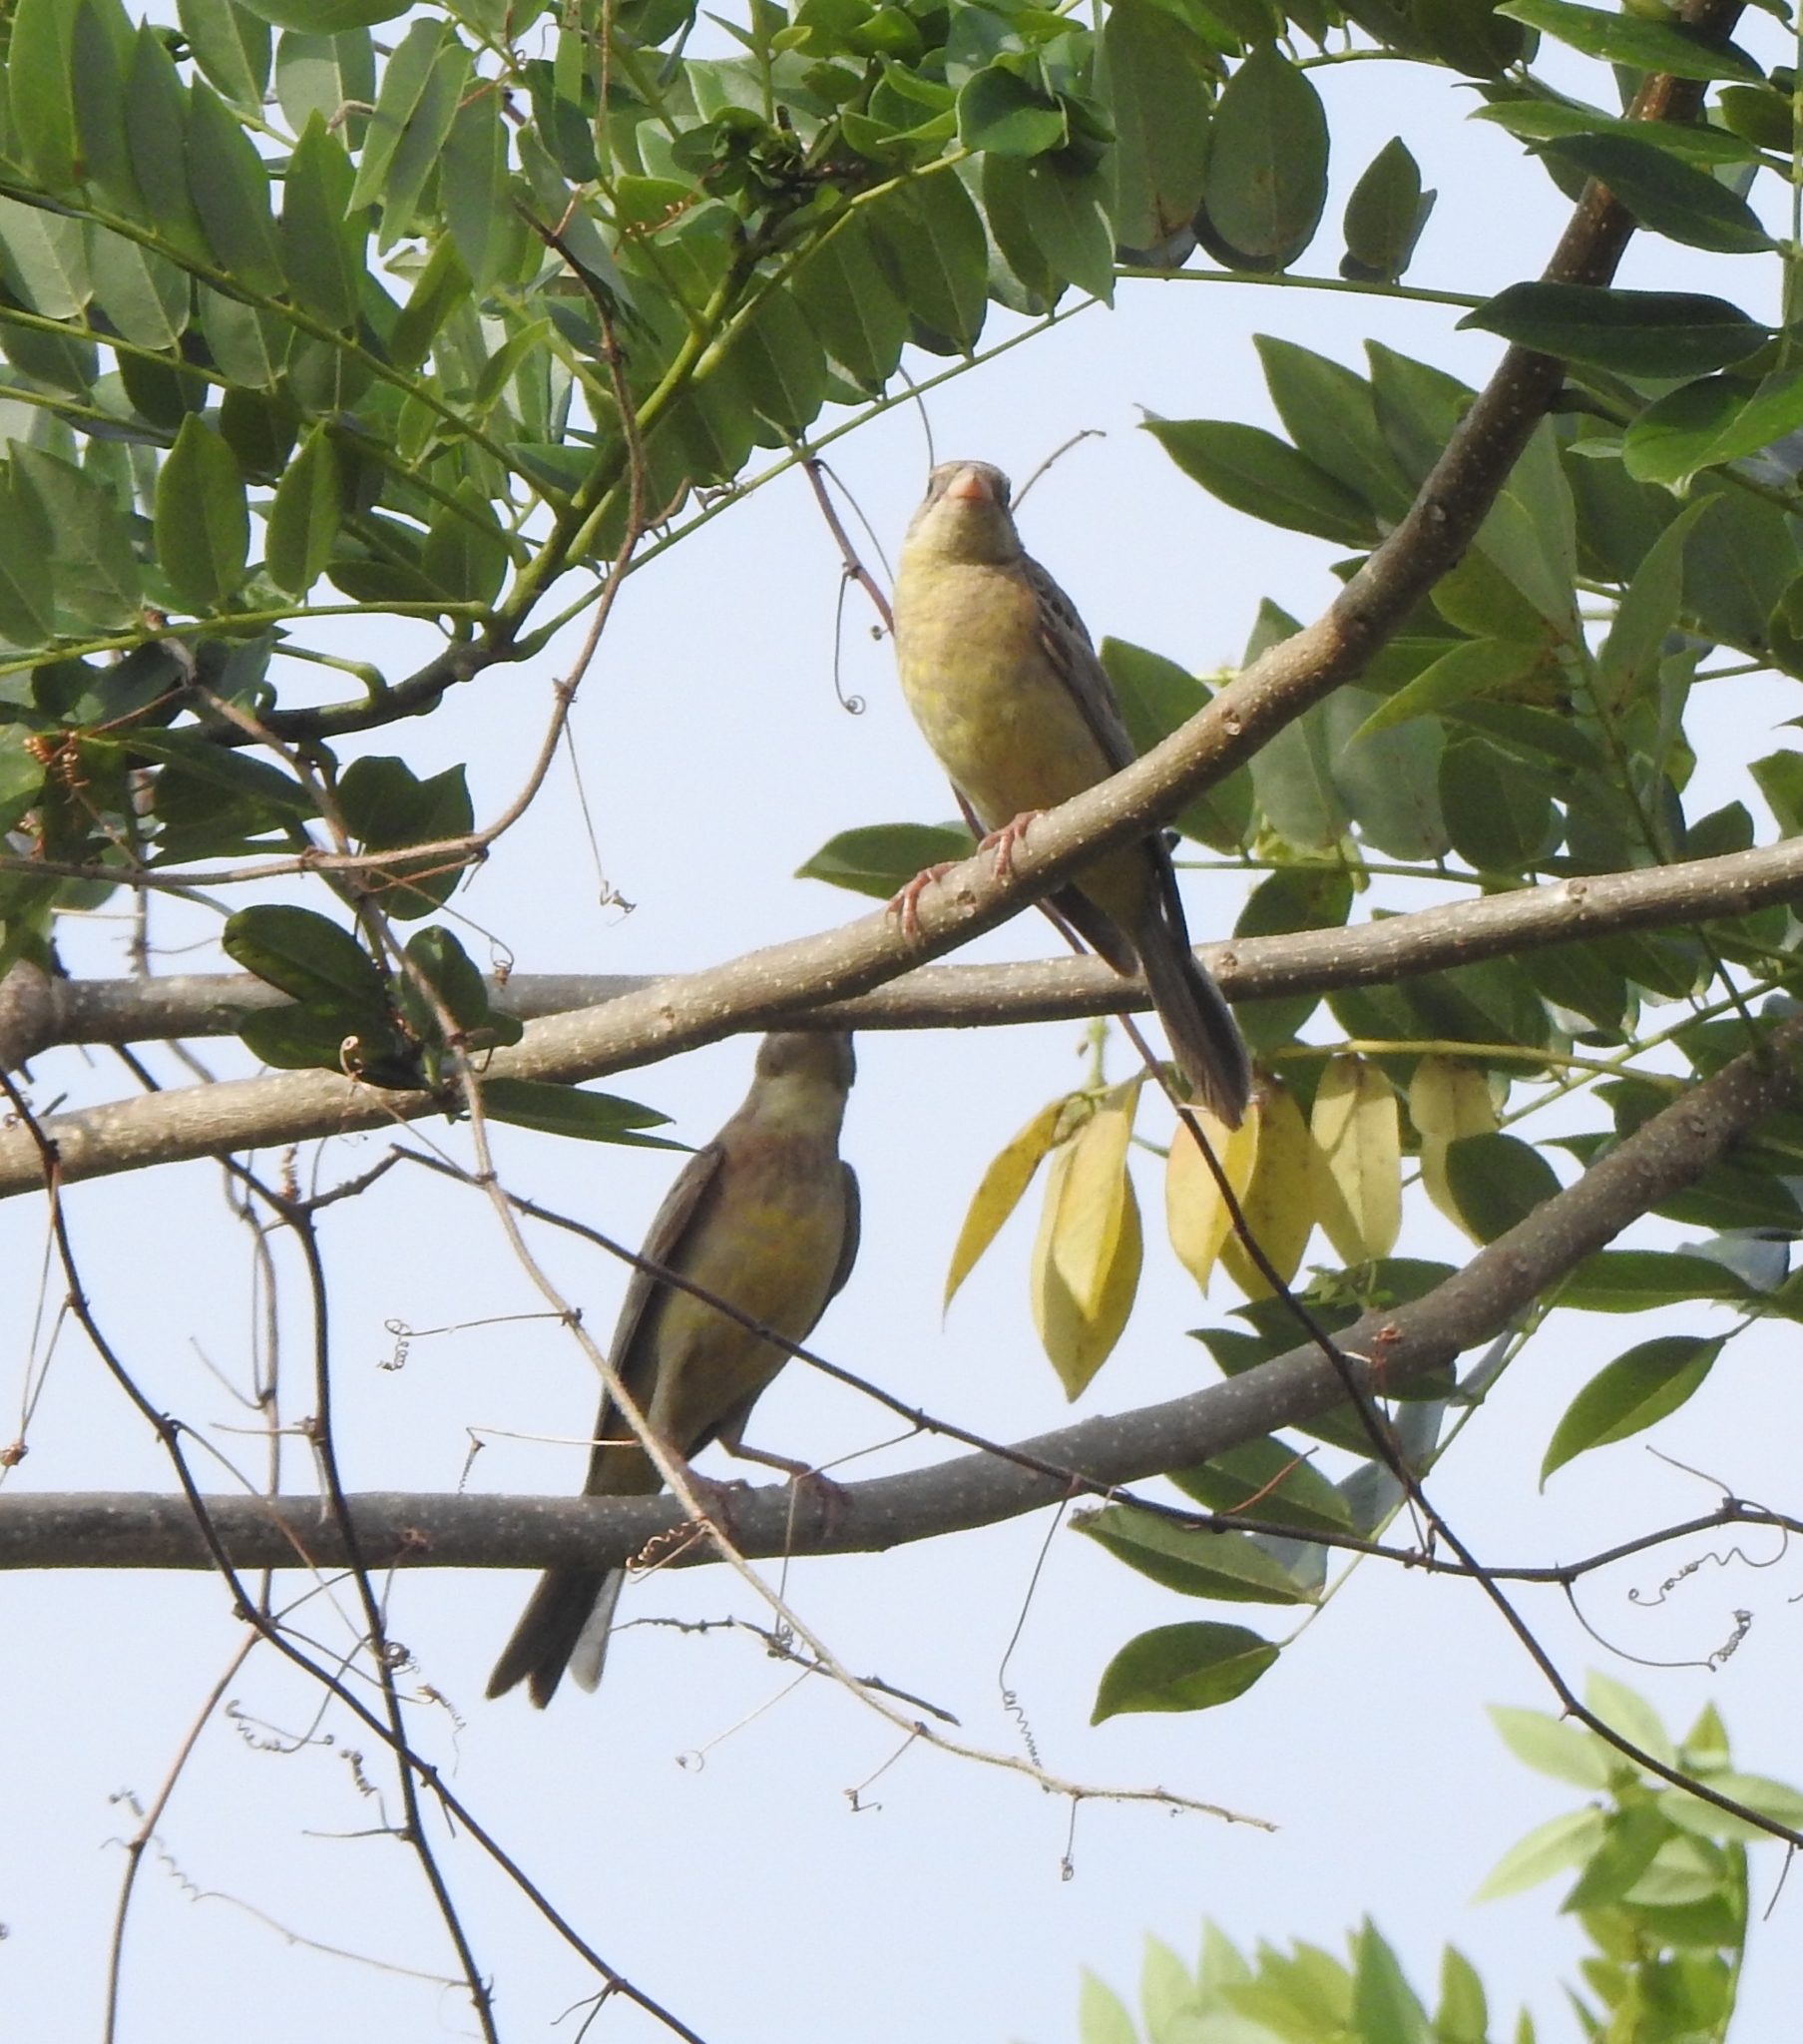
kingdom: Animalia
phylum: Chordata
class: Aves
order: Passeriformes
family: Emberizidae
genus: Emberiza
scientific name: Emberiza melanocephala
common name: Black-headed bunting
